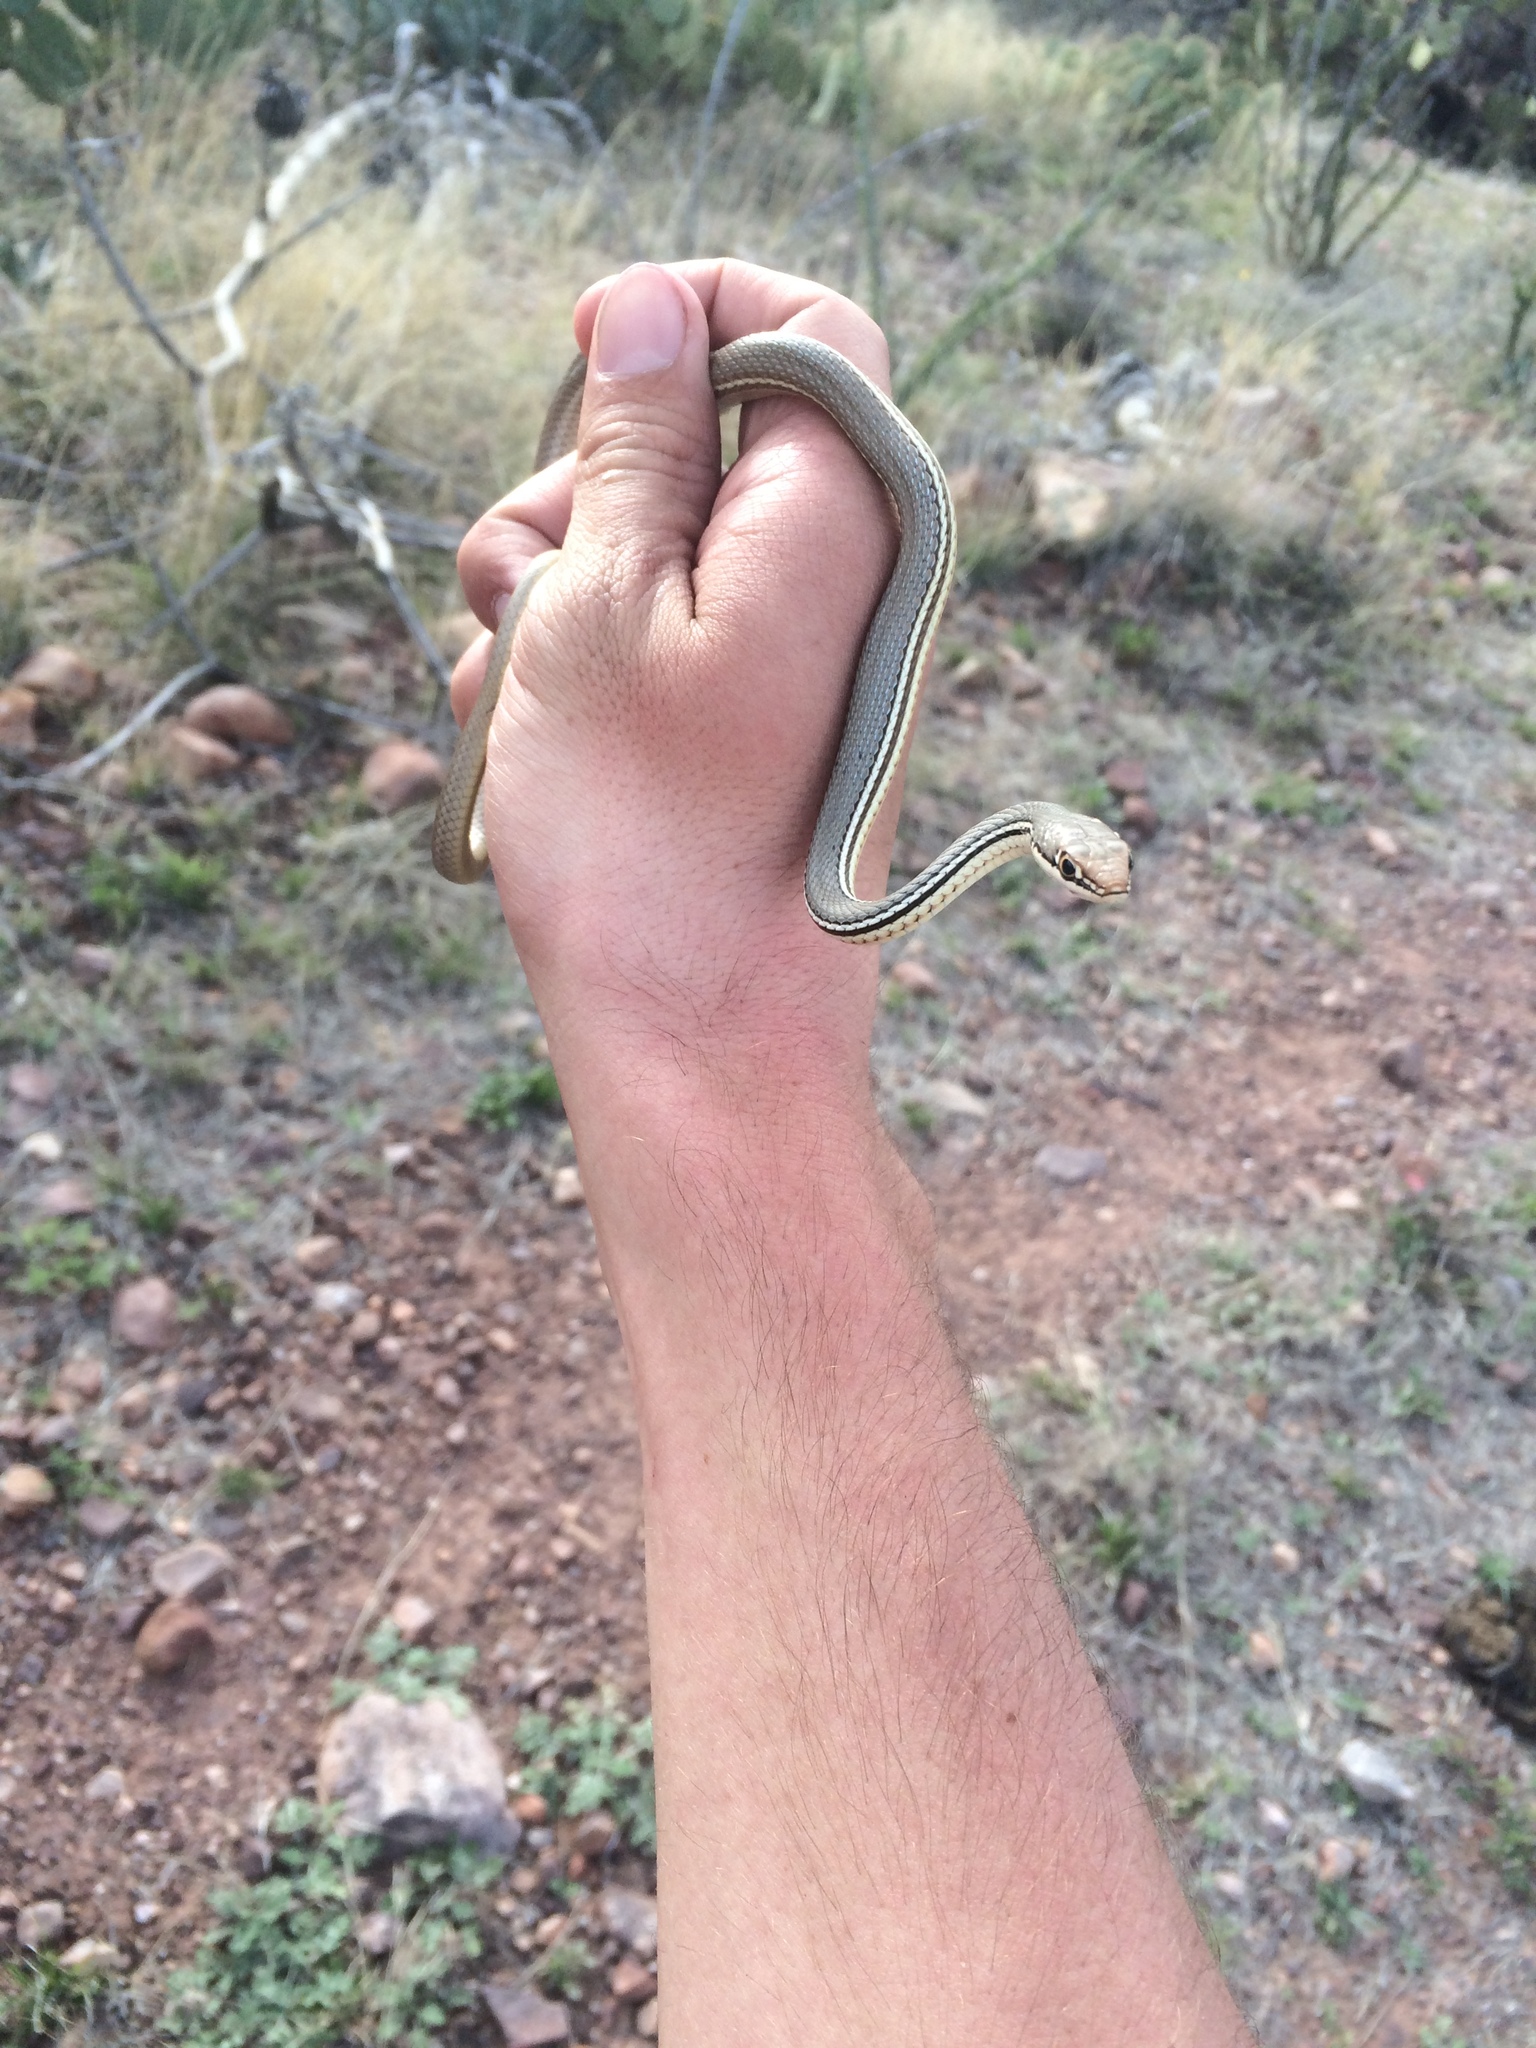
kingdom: Animalia
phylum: Chordata
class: Squamata
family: Colubridae
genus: Masticophis
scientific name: Masticophis bilineatus
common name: Sonoran whipsnake
